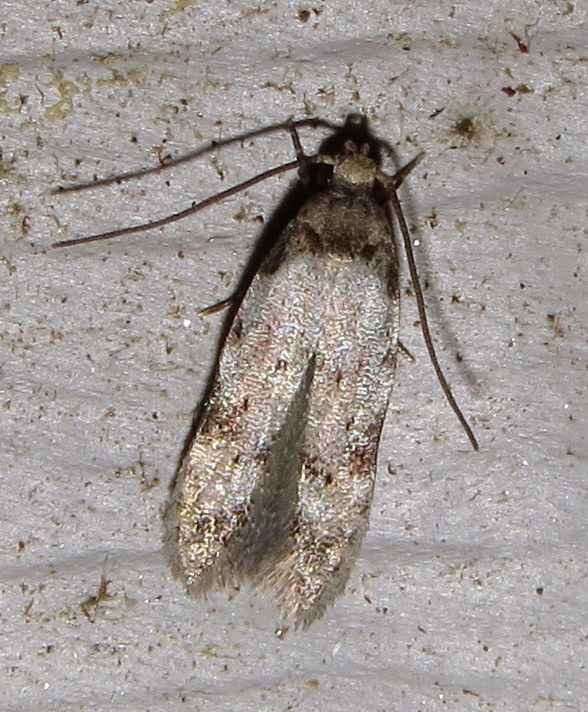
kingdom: Animalia
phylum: Arthropoda
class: Insecta
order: Lepidoptera
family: Autostichidae
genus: Taygete
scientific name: Taygete attributella
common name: Triangle-marked twirler moth
